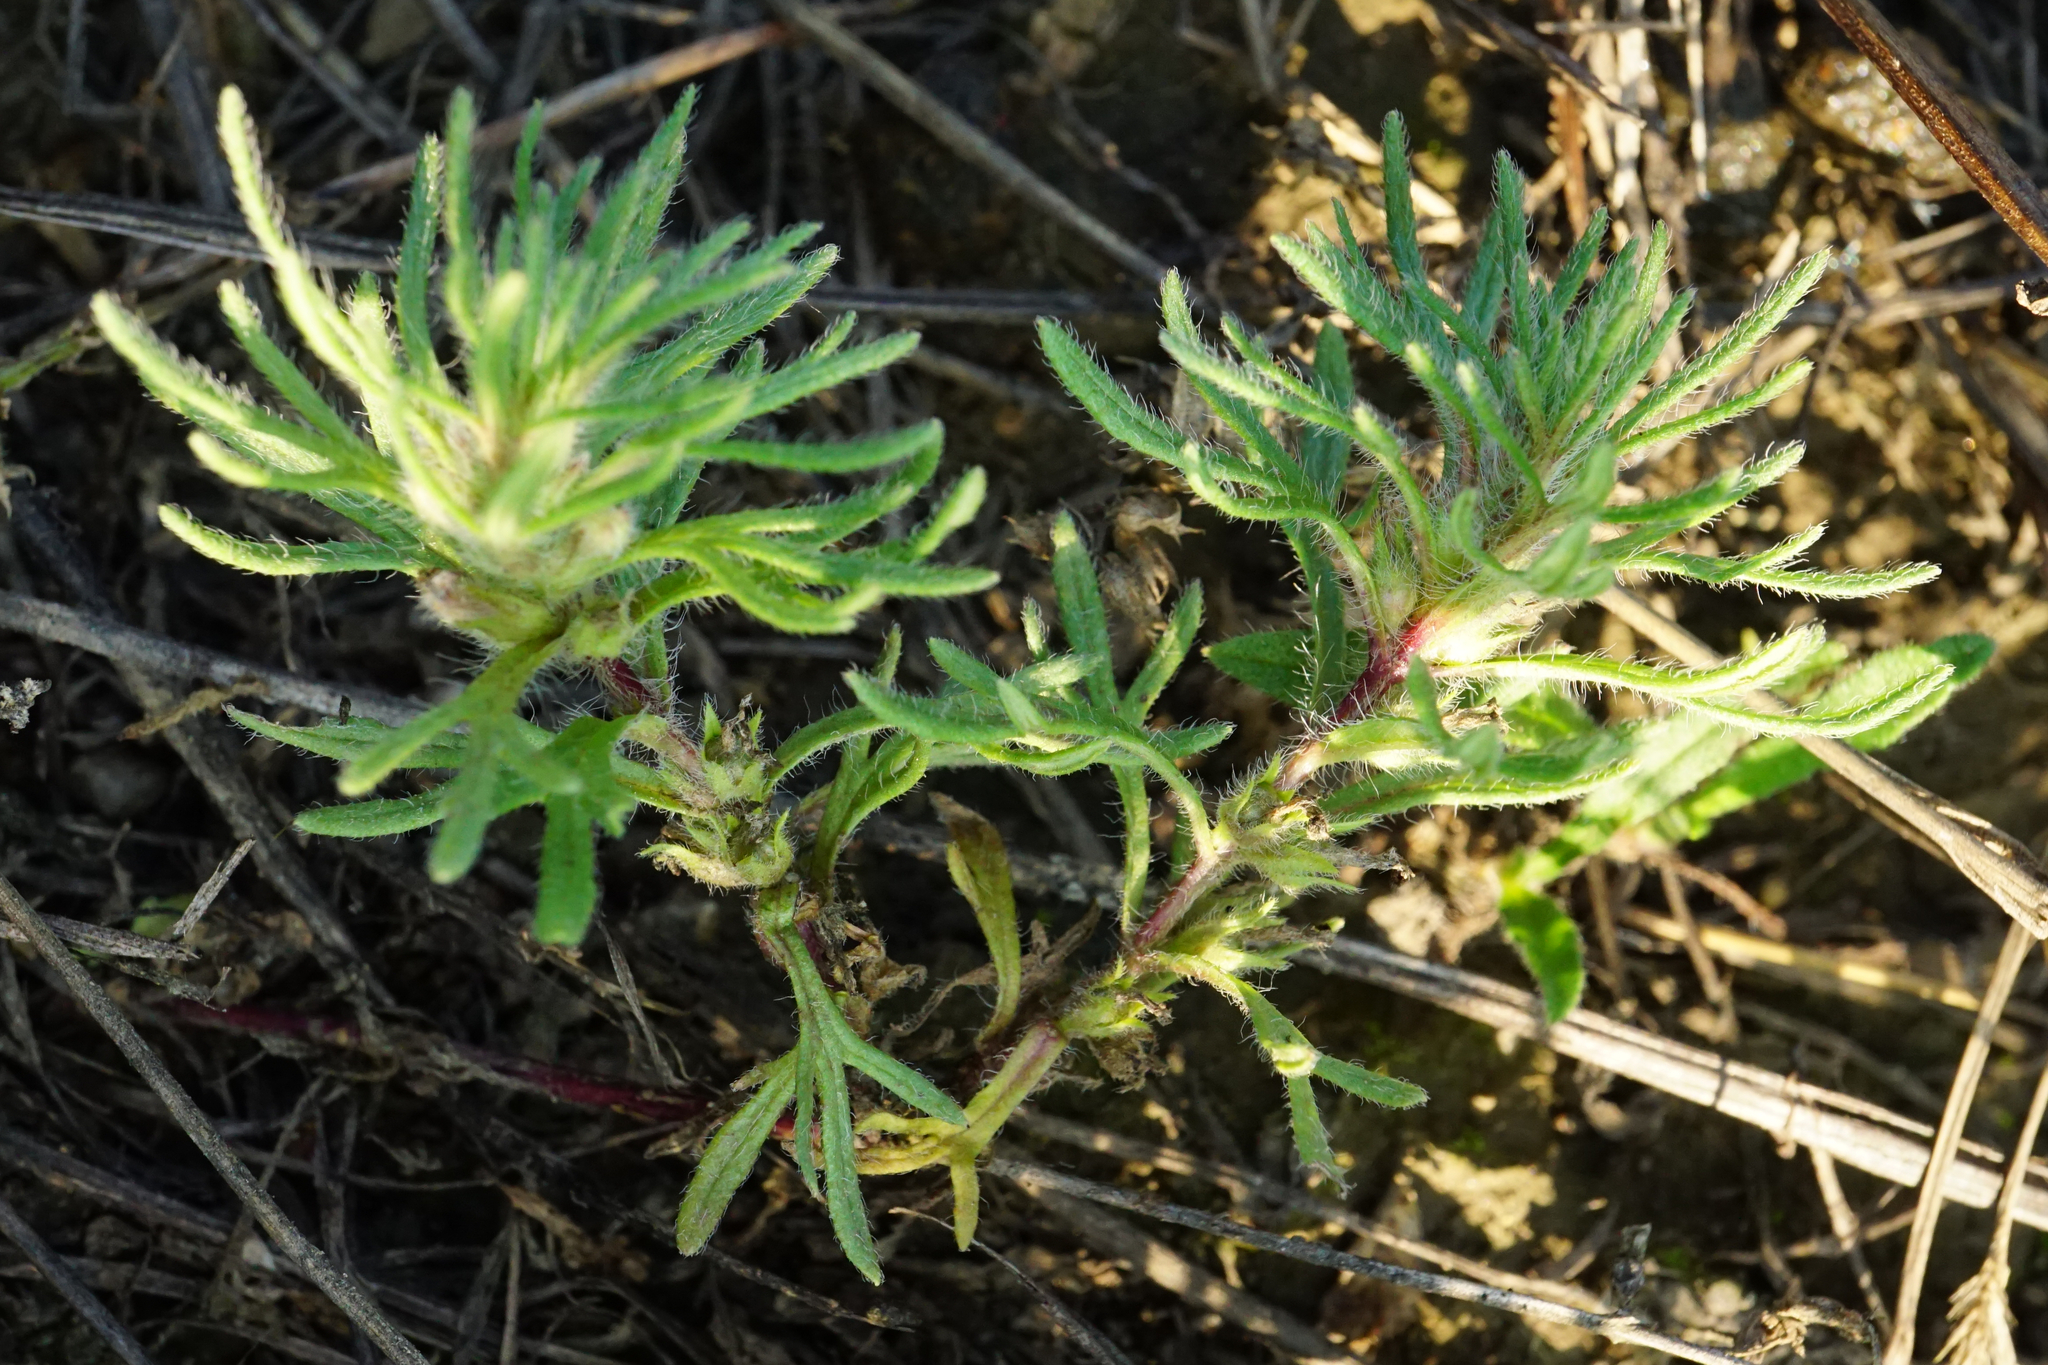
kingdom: Plantae
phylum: Tracheophyta
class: Magnoliopsida
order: Lamiales
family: Lamiaceae
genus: Ajuga
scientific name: Ajuga chamaepitys
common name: Ground-pine
